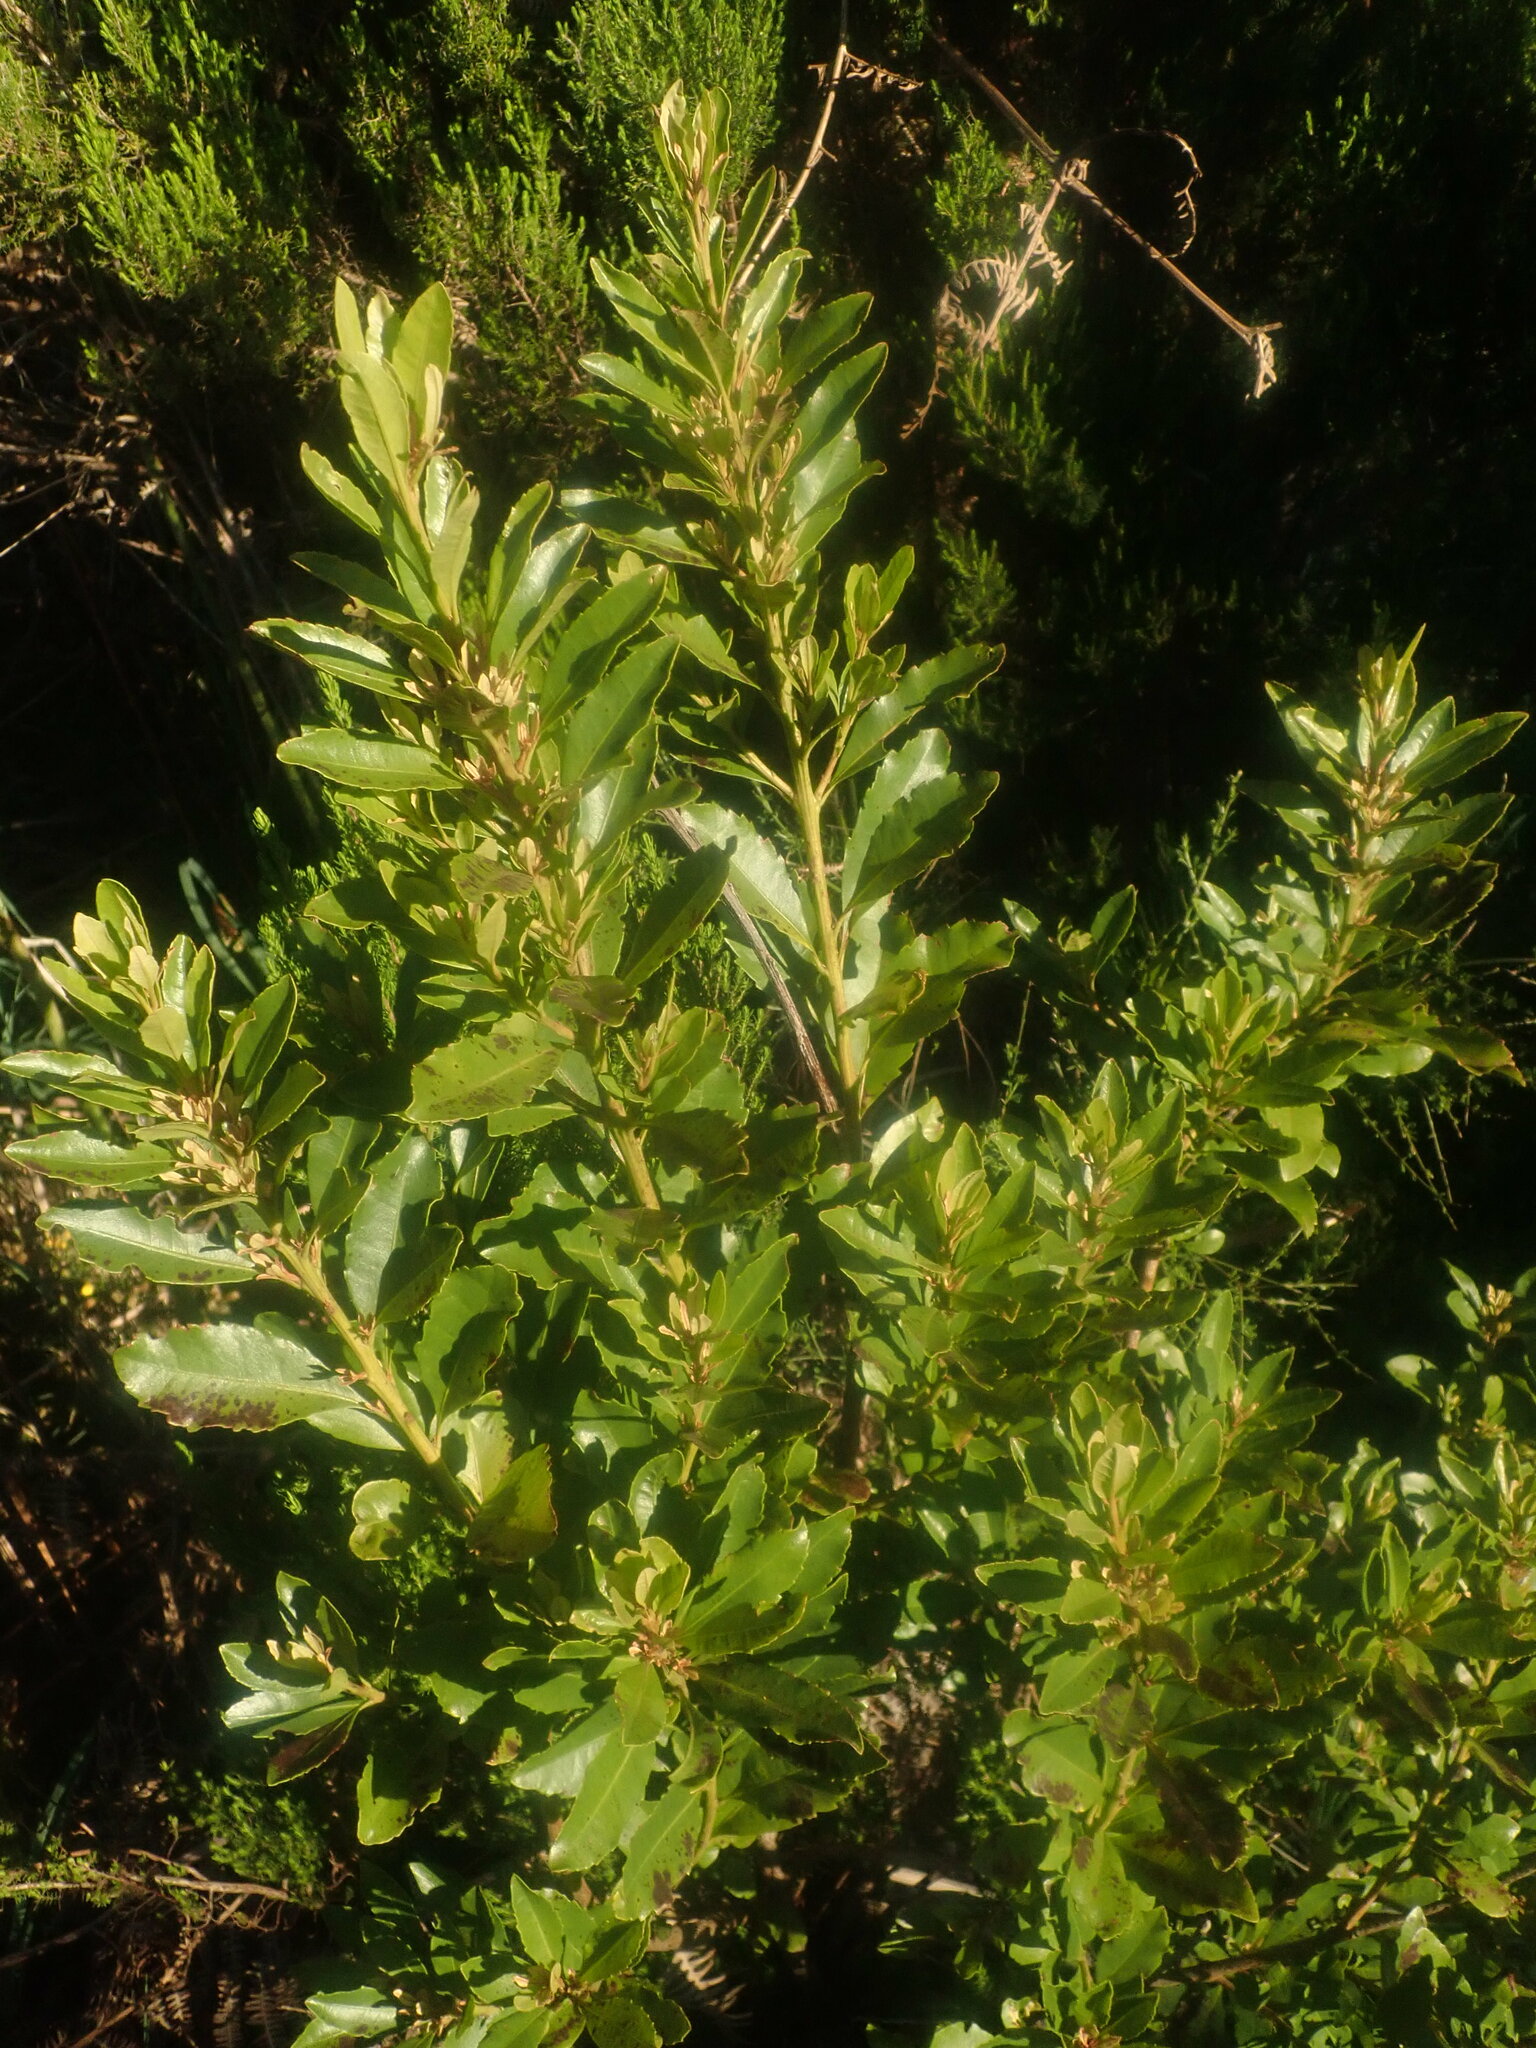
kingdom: Plantae
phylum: Tracheophyta
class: Magnoliopsida
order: Fagales
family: Myricaceae
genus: Morella
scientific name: Morella faya
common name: Firetree
